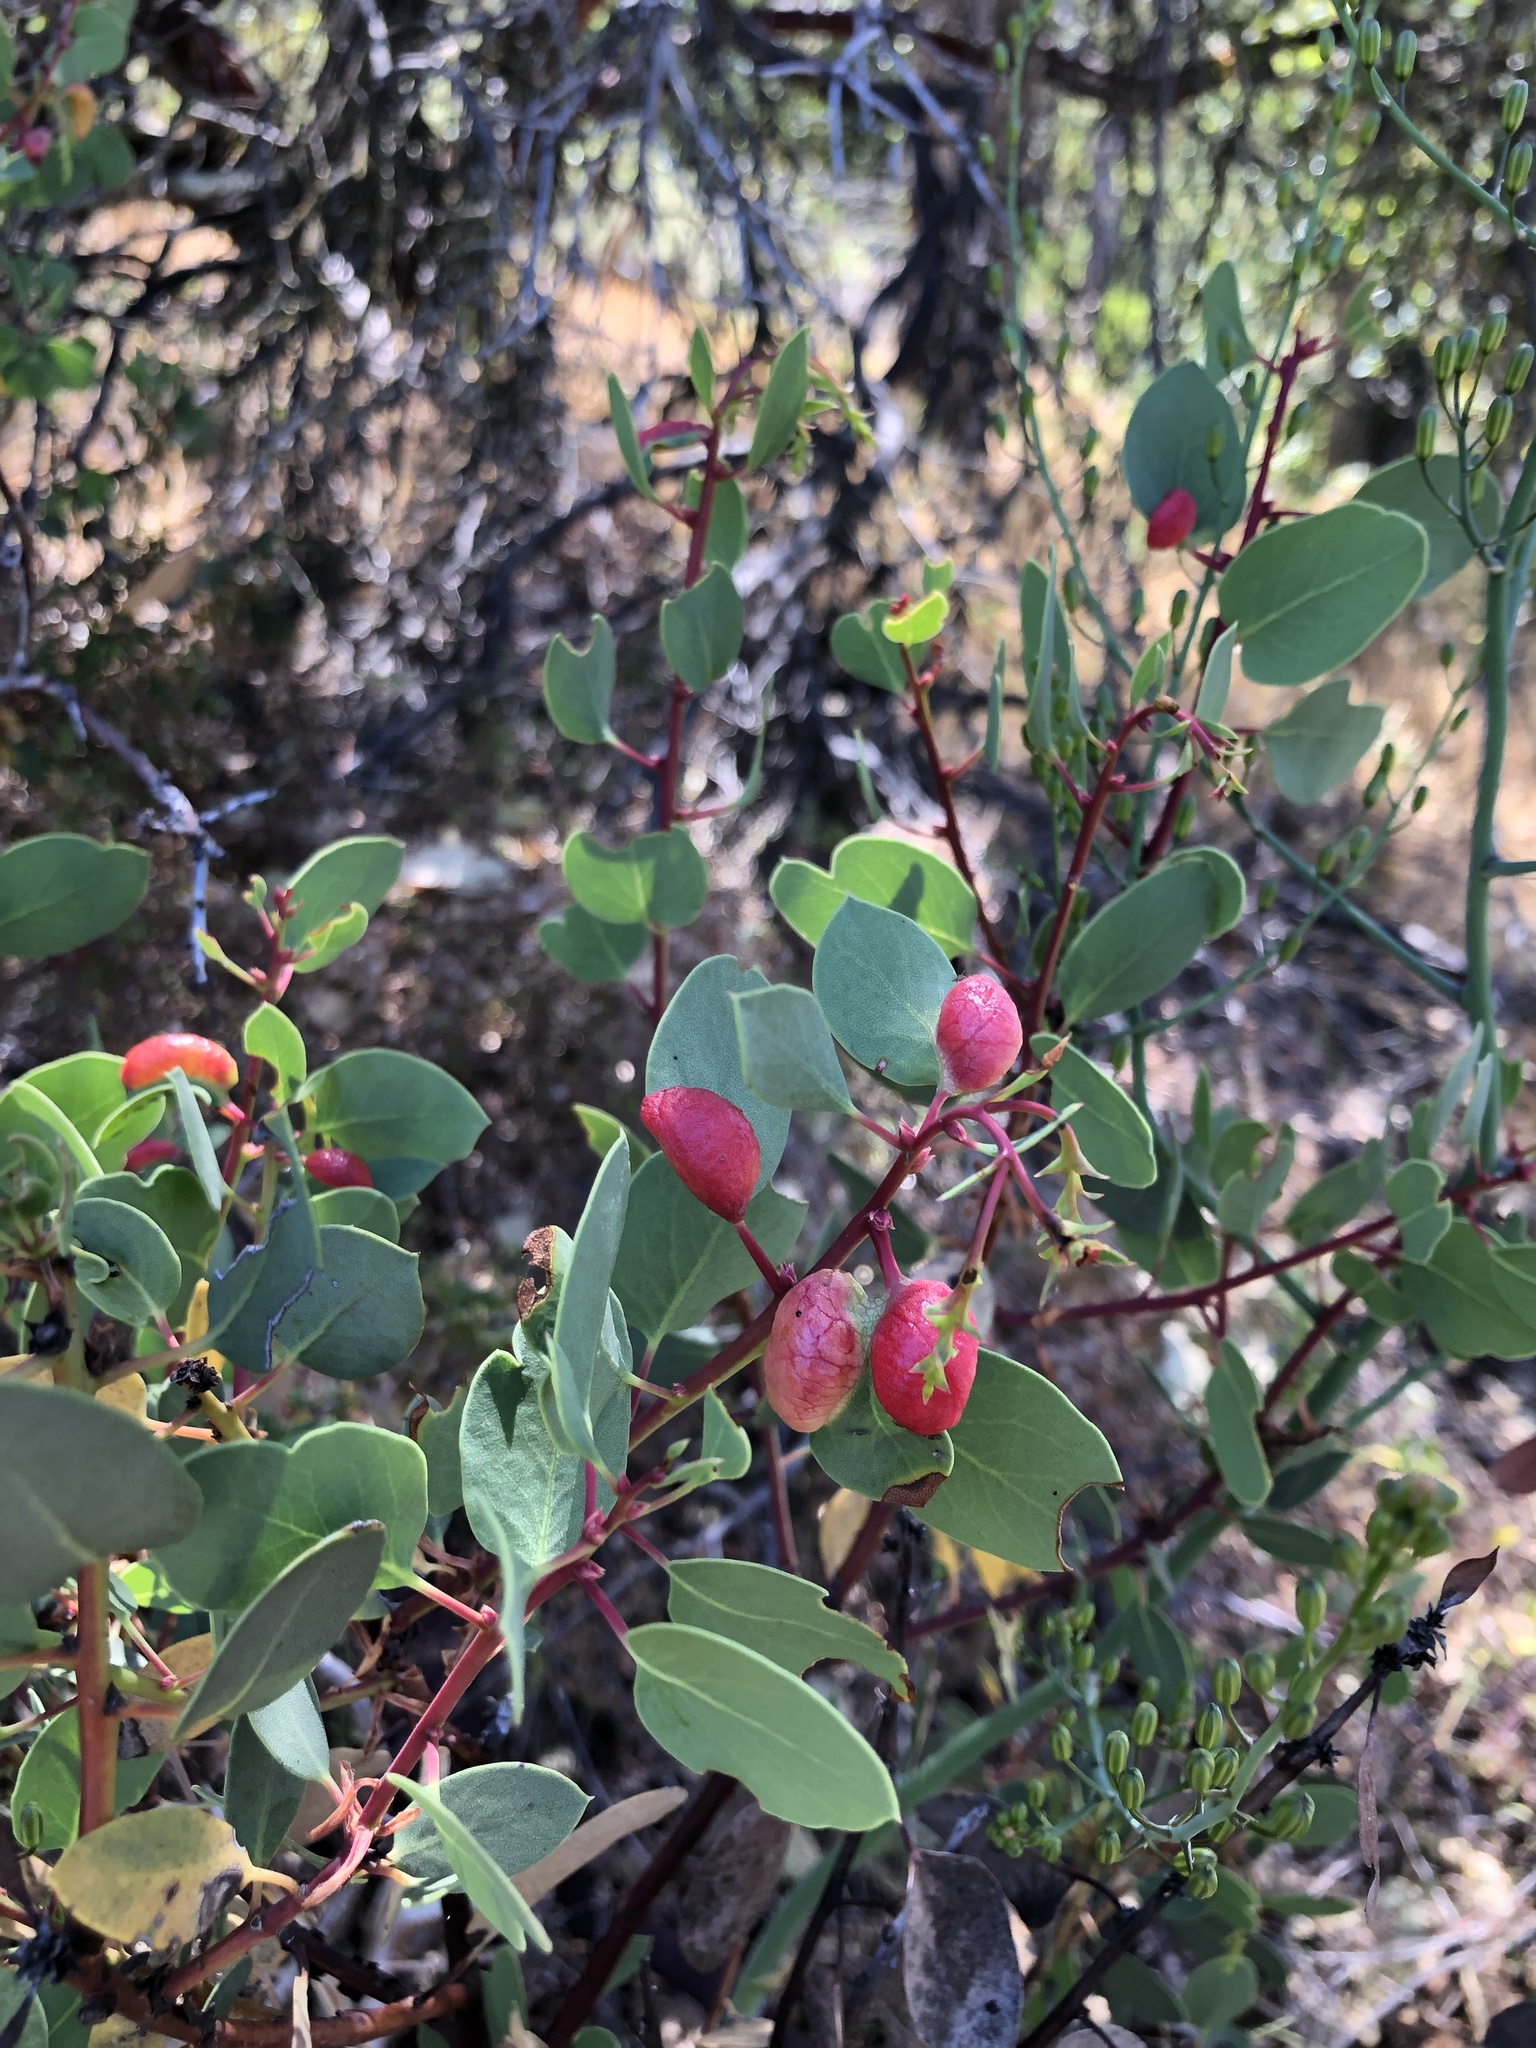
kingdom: Plantae
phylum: Tracheophyta
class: Magnoliopsida
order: Ericales
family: Ericaceae
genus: Arctostaphylos
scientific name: Arctostaphylos glauca
